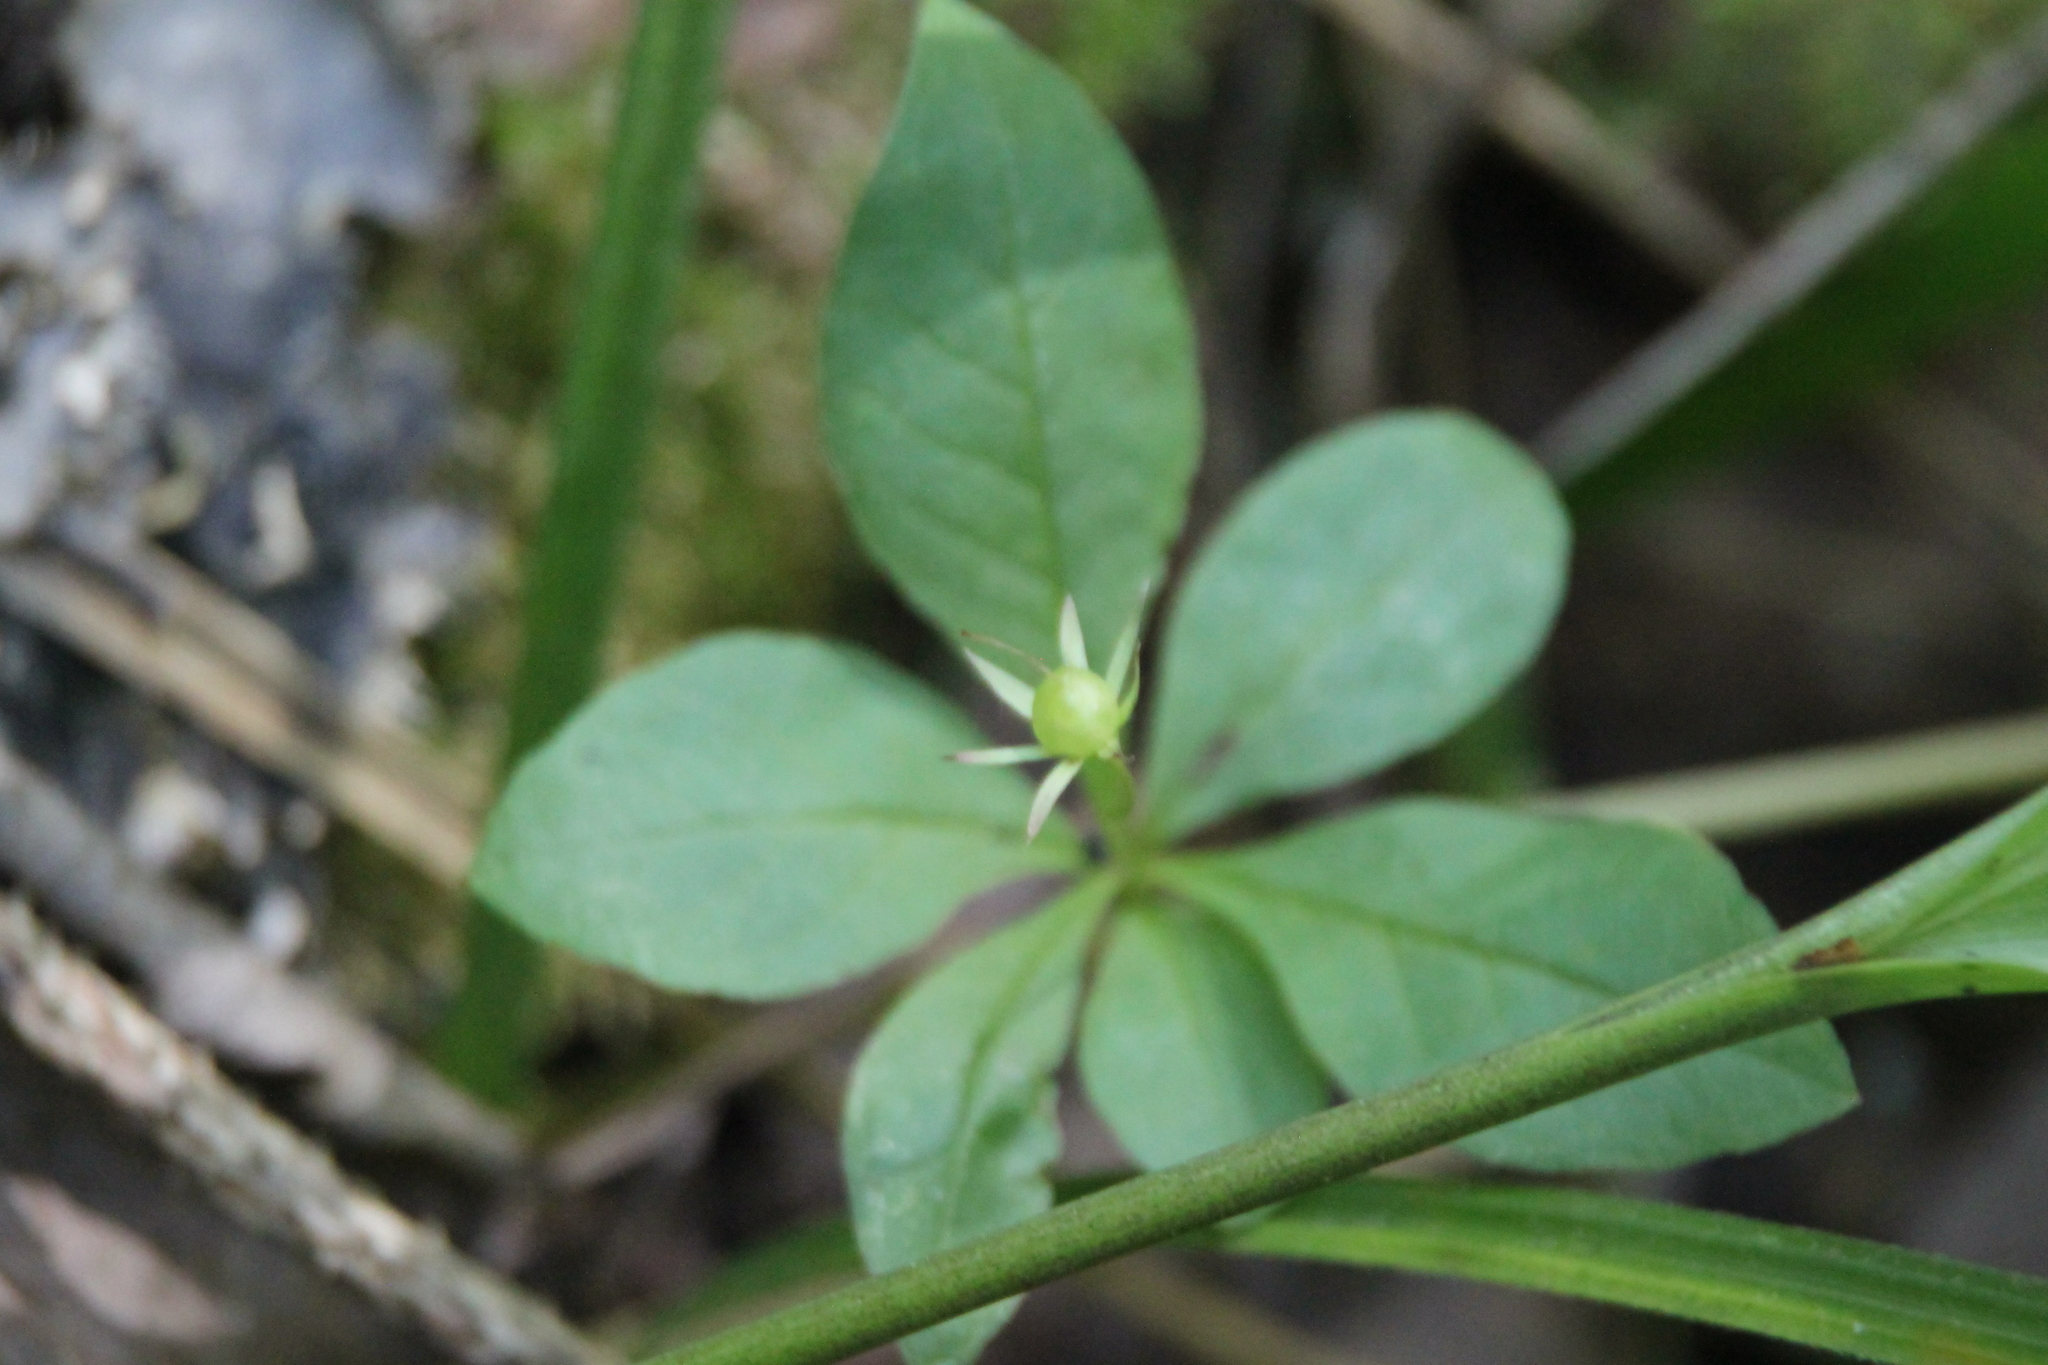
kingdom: Plantae
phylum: Tracheophyta
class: Magnoliopsida
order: Ericales
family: Primulaceae
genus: Lysimachia
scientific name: Lysimachia europaea
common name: Arctic starflower
